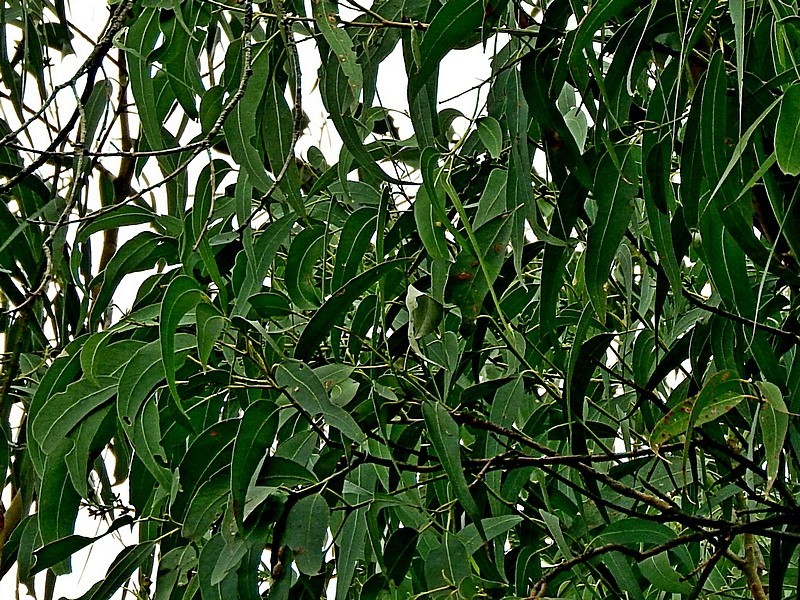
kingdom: Plantae
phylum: Tracheophyta
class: Magnoliopsida
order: Myrtales
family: Myrtaceae
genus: Eucalyptus
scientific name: Eucalyptus cypellocarpa
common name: Mountain grey gum
